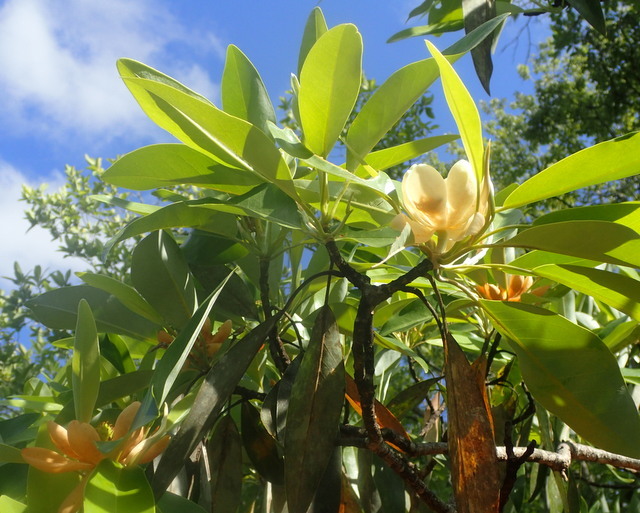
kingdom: Plantae
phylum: Tracheophyta
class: Magnoliopsida
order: Magnoliales
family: Magnoliaceae
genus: Magnolia
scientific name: Magnolia virginiana
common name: Swamp bay
